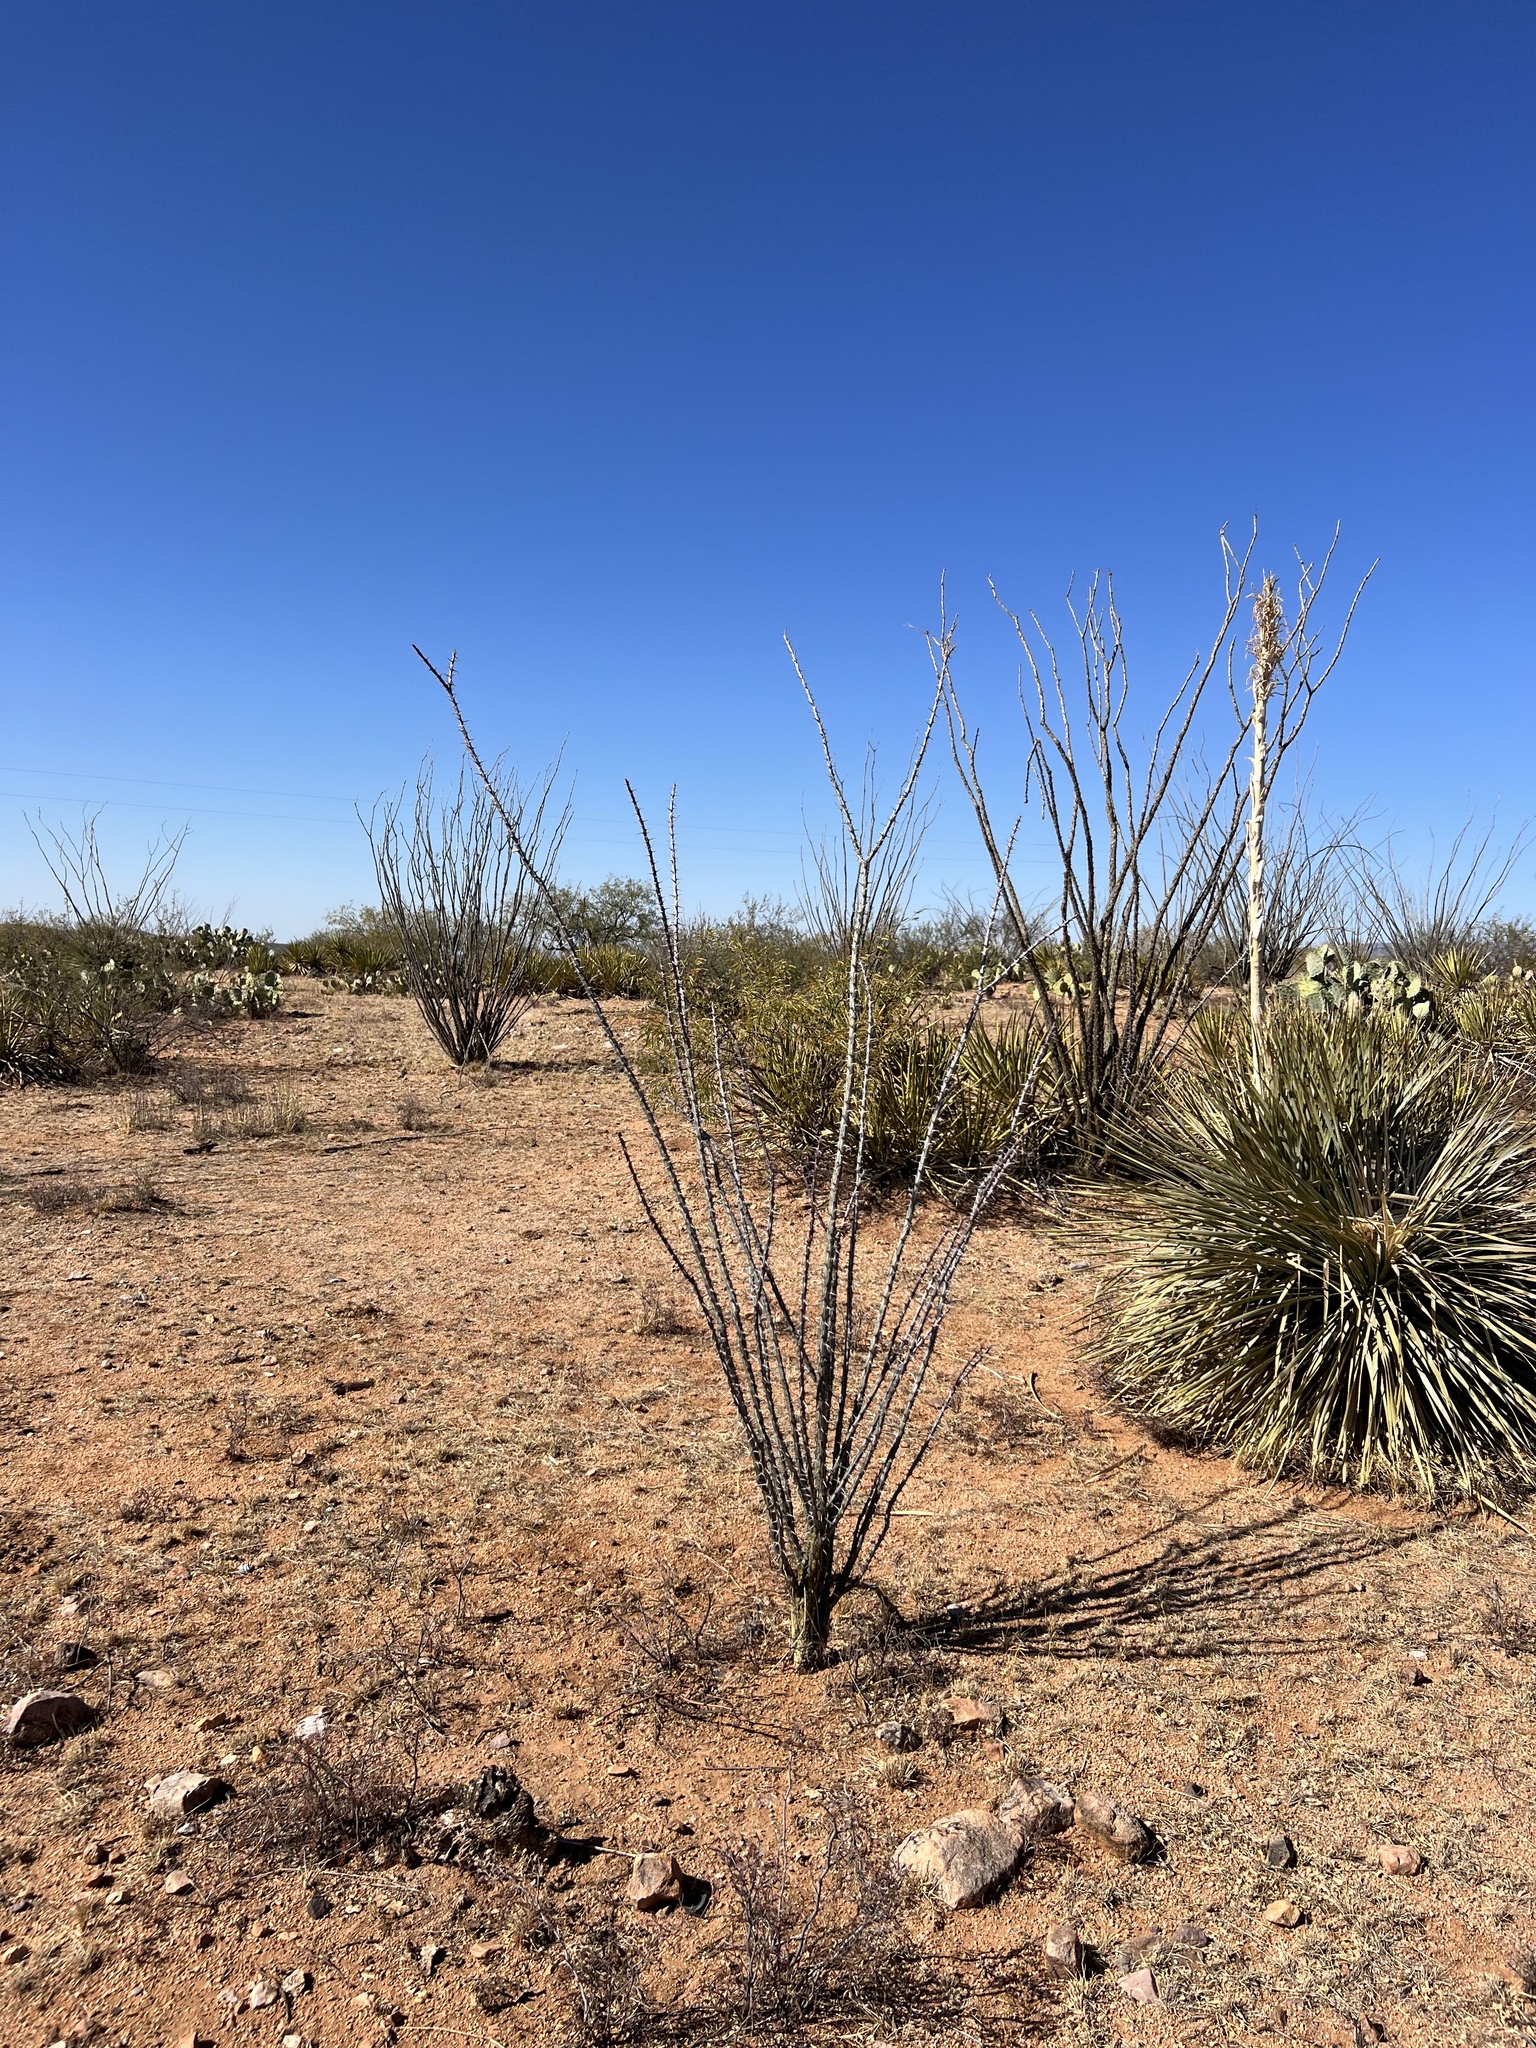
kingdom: Plantae
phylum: Tracheophyta
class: Magnoliopsida
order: Ericales
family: Fouquieriaceae
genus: Fouquieria
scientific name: Fouquieria splendens
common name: Vine-cactus
